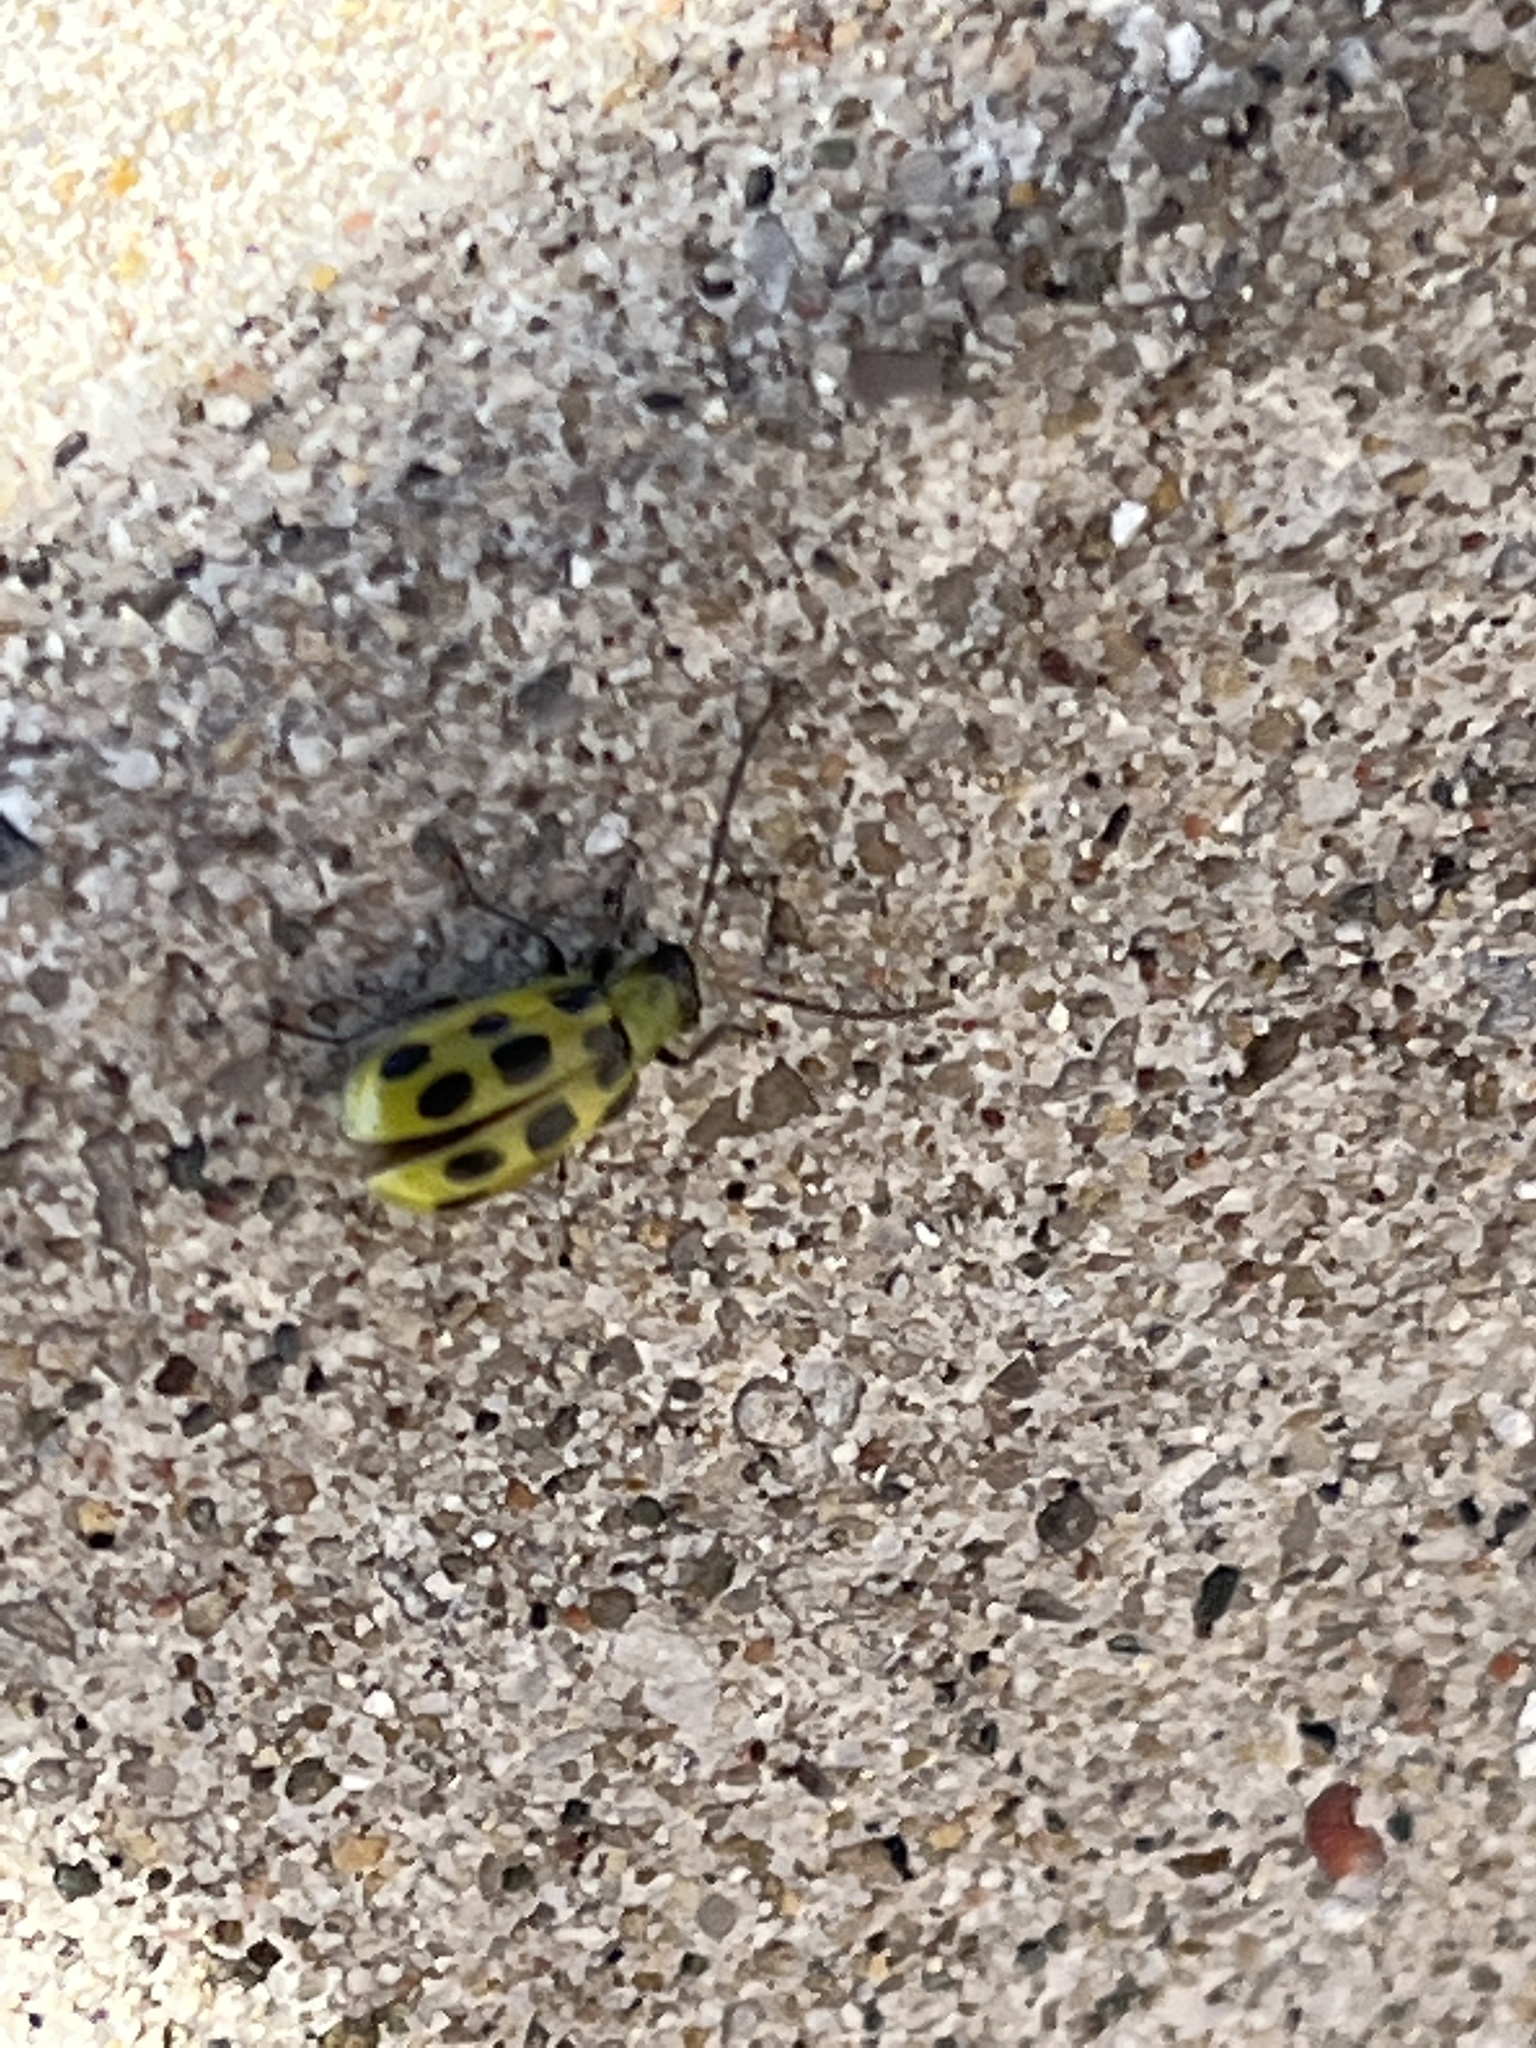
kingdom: Animalia
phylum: Arthropoda
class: Insecta
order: Coleoptera
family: Chrysomelidae
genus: Diabrotica
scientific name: Diabrotica undecimpunctata
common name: Spotted cucumber beetle
